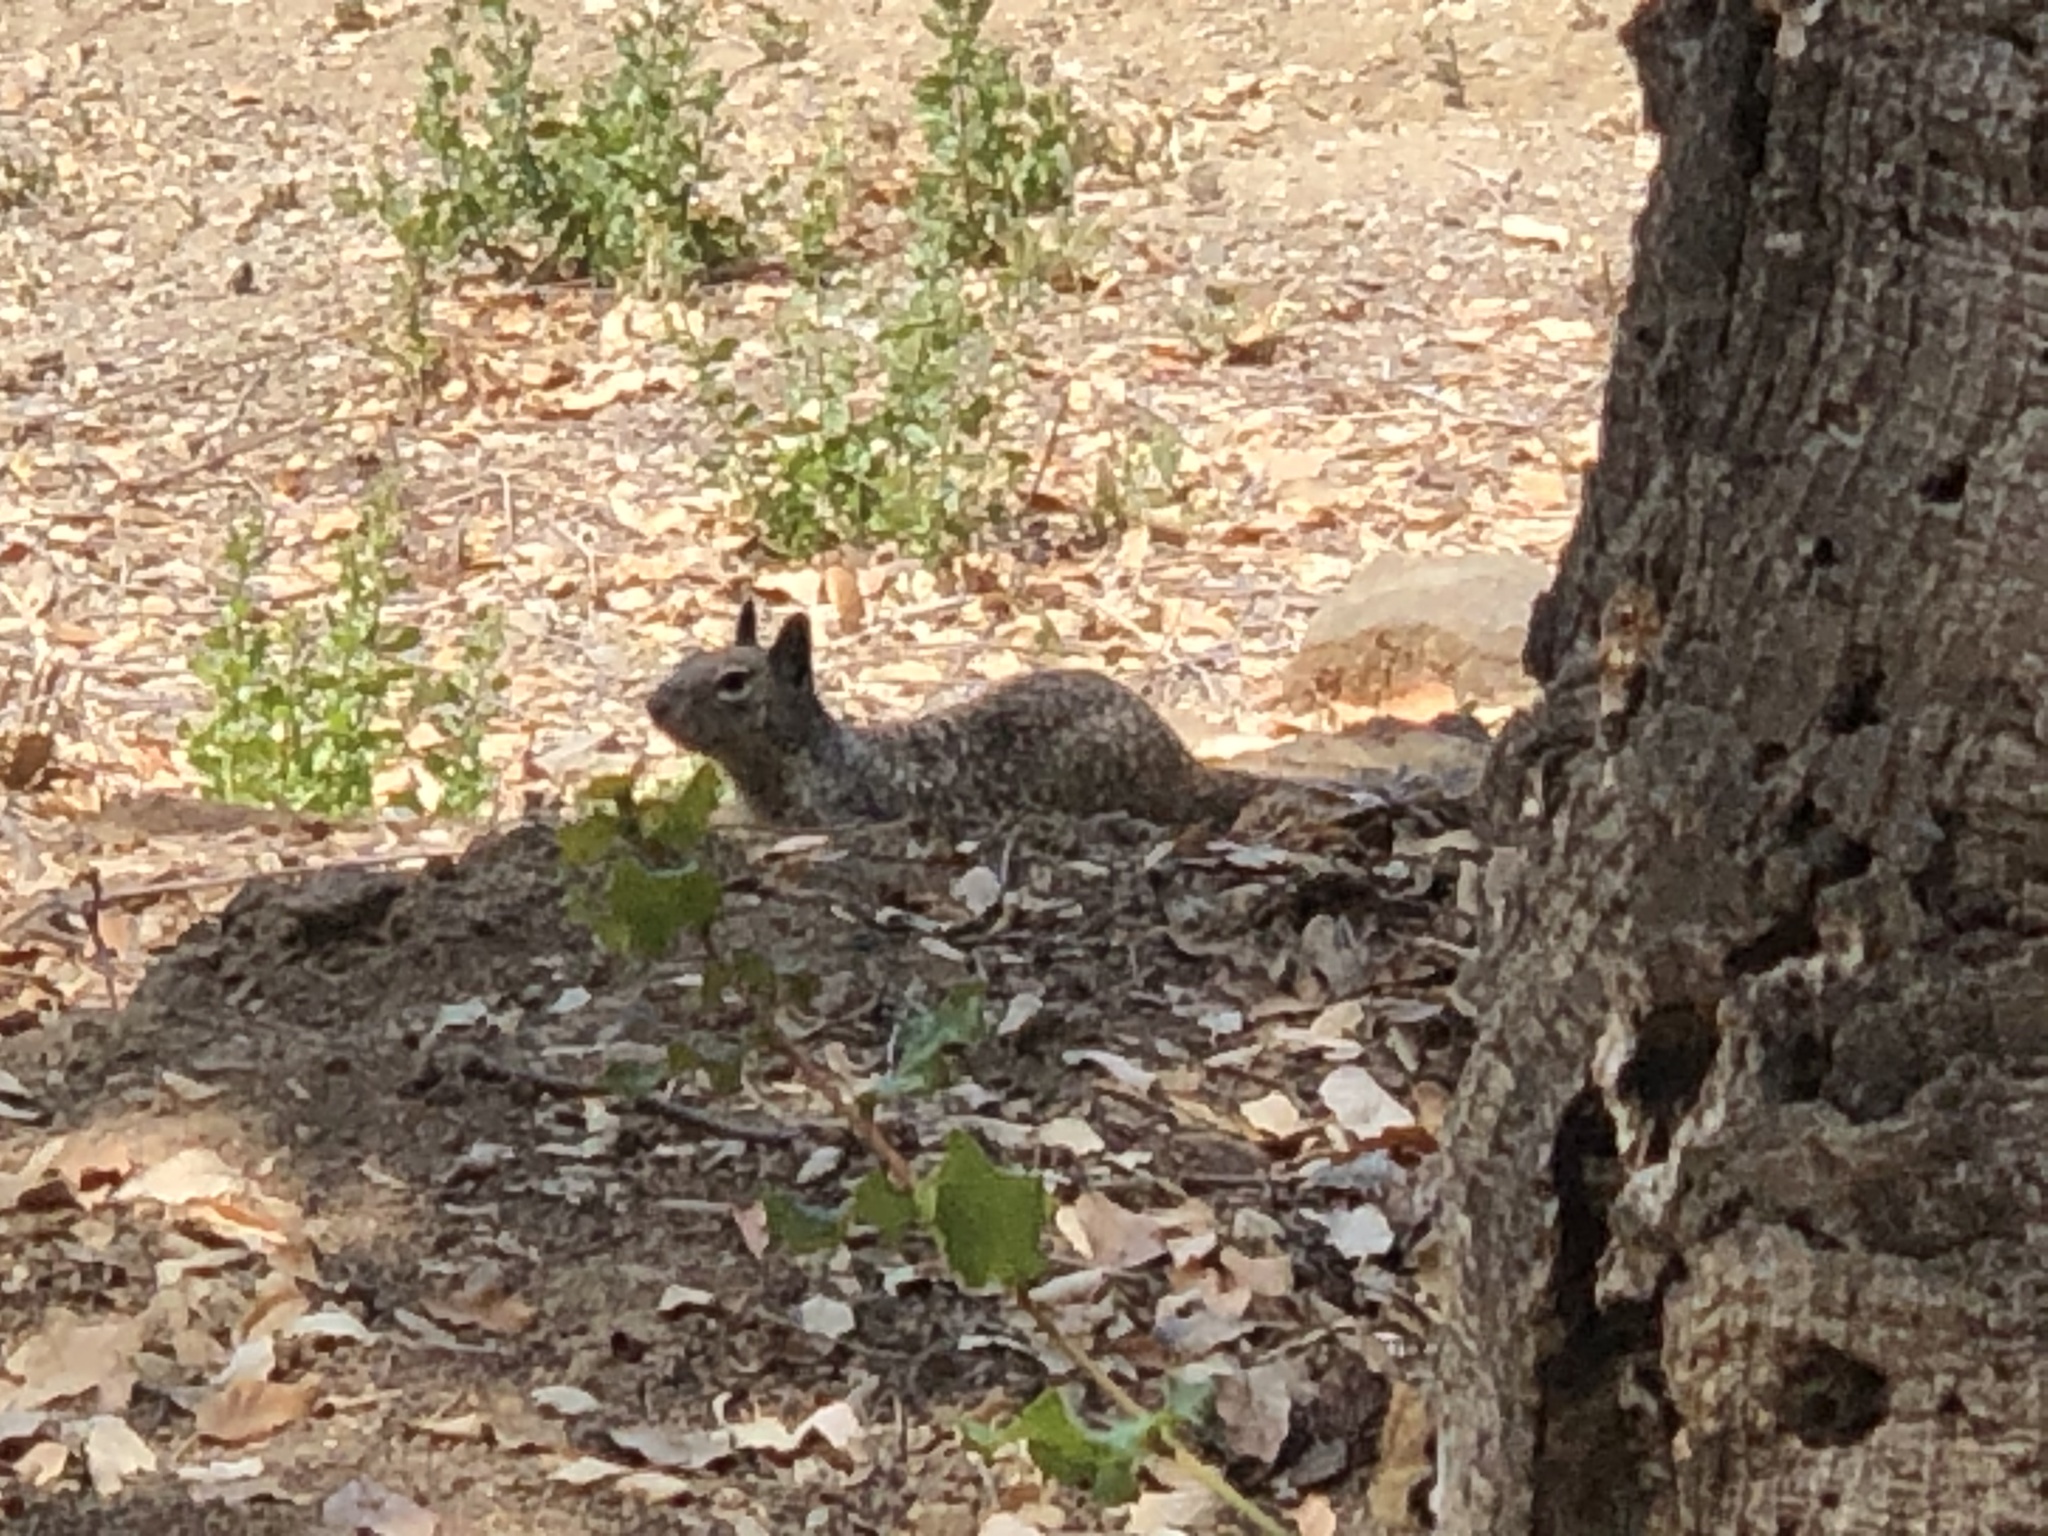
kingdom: Animalia
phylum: Chordata
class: Mammalia
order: Rodentia
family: Sciuridae
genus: Otospermophilus
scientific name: Otospermophilus beecheyi
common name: California ground squirrel
